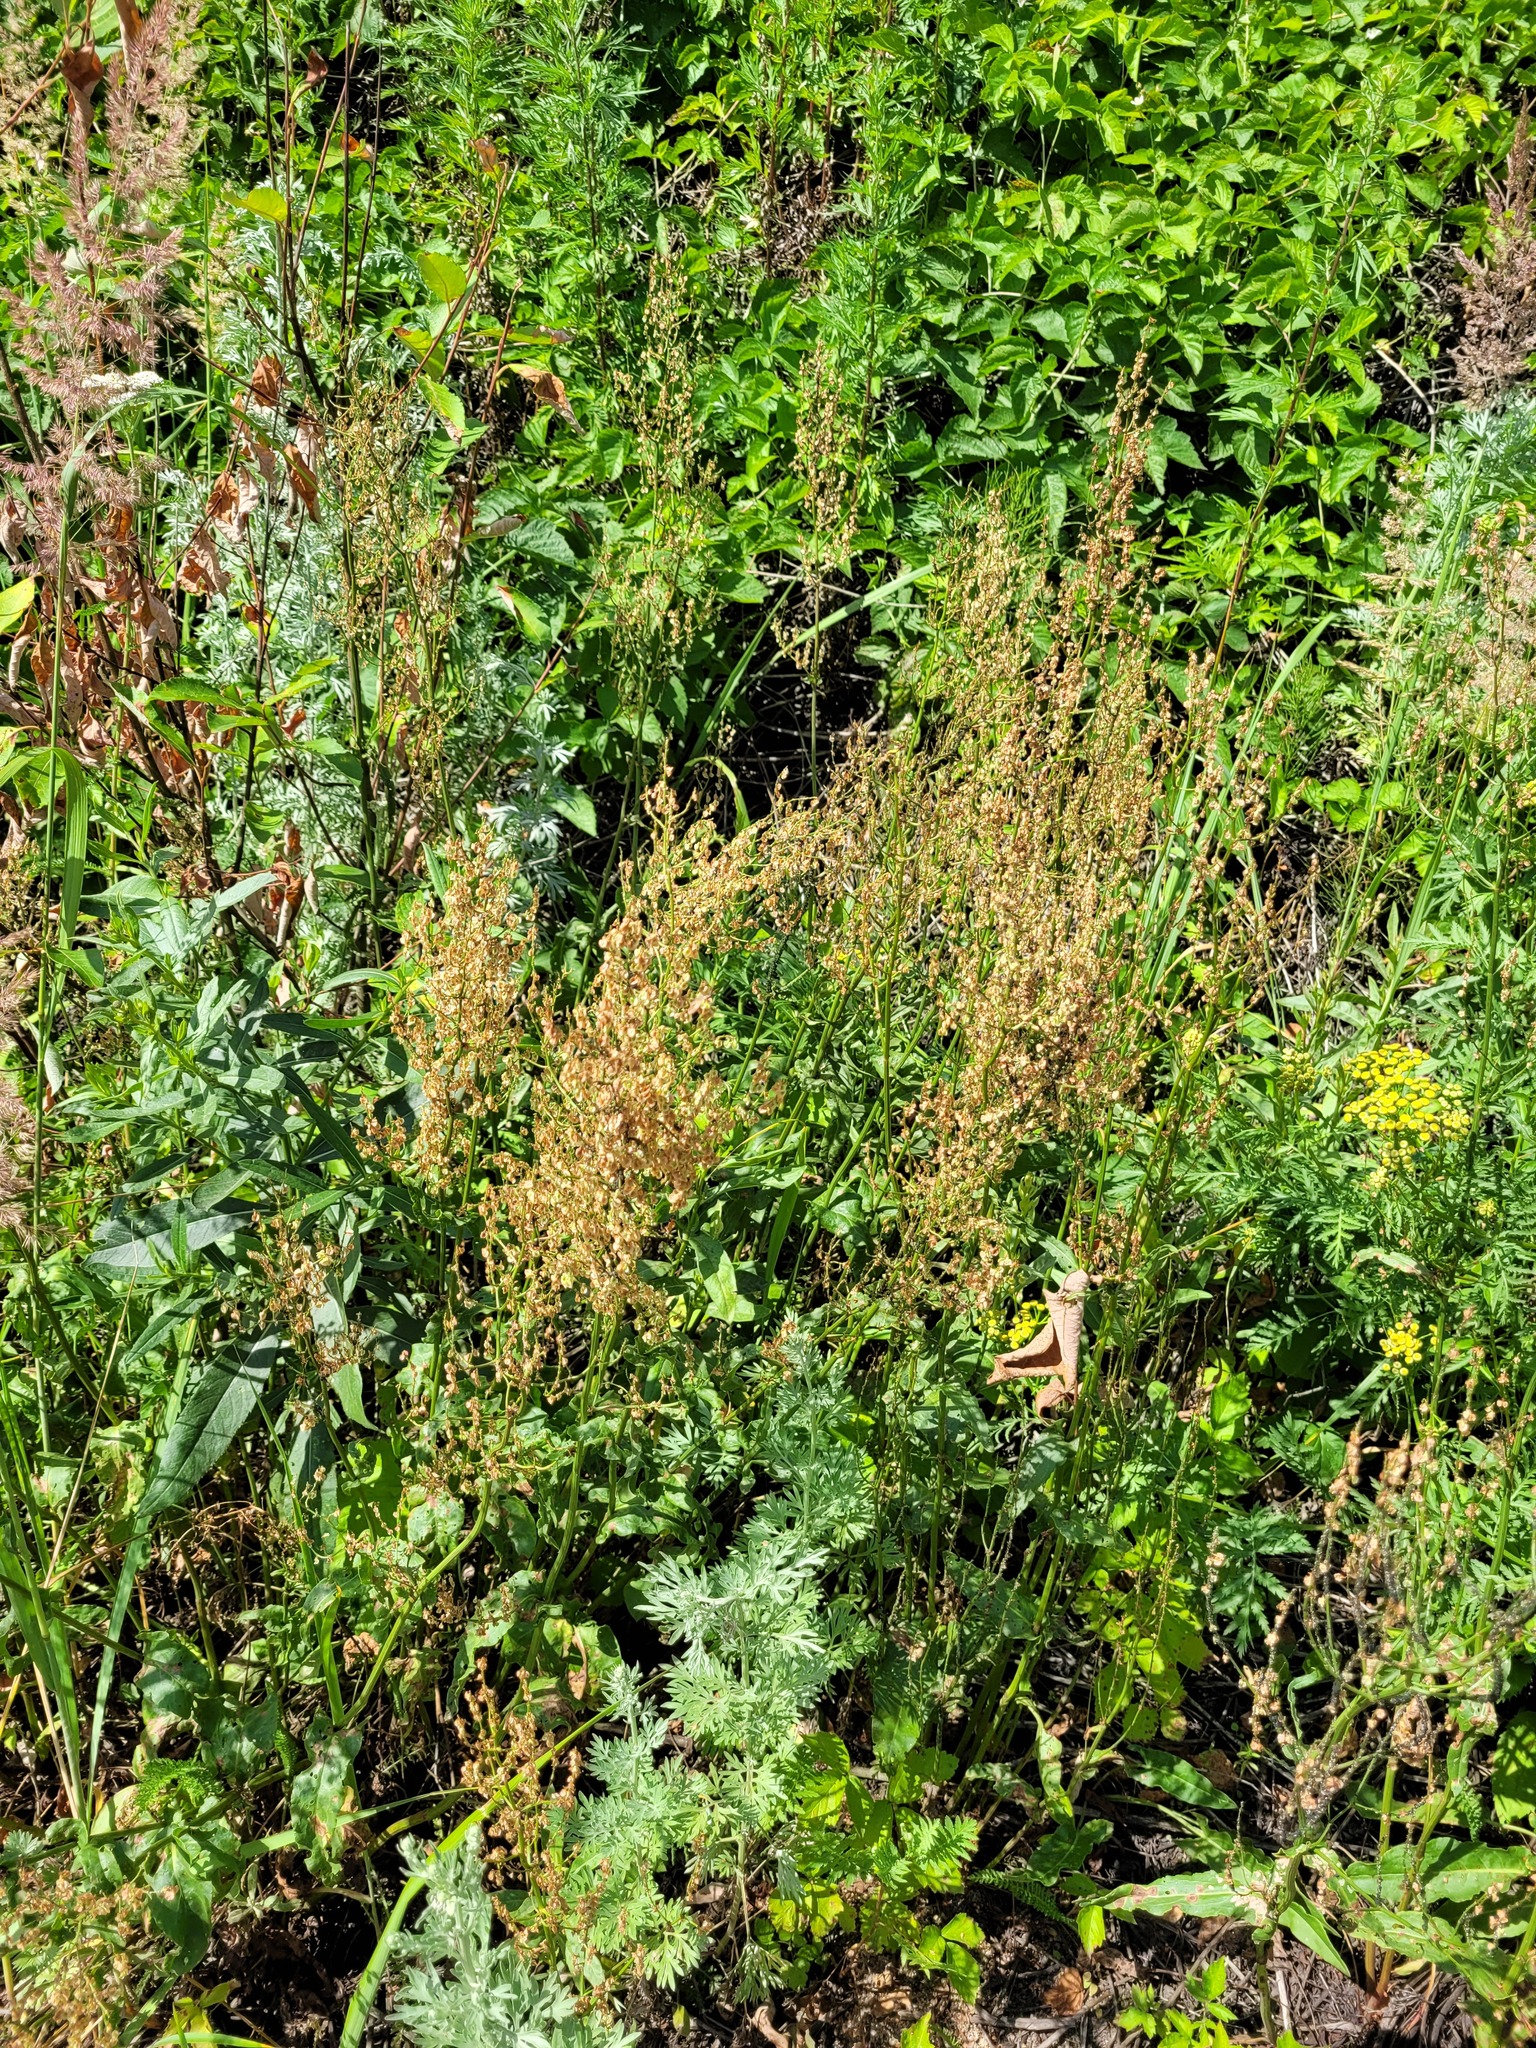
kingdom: Plantae
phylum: Tracheophyta
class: Magnoliopsida
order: Caryophyllales
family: Polygonaceae
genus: Rumex
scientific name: Rumex thyrsiflorus
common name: Garden sorrel
